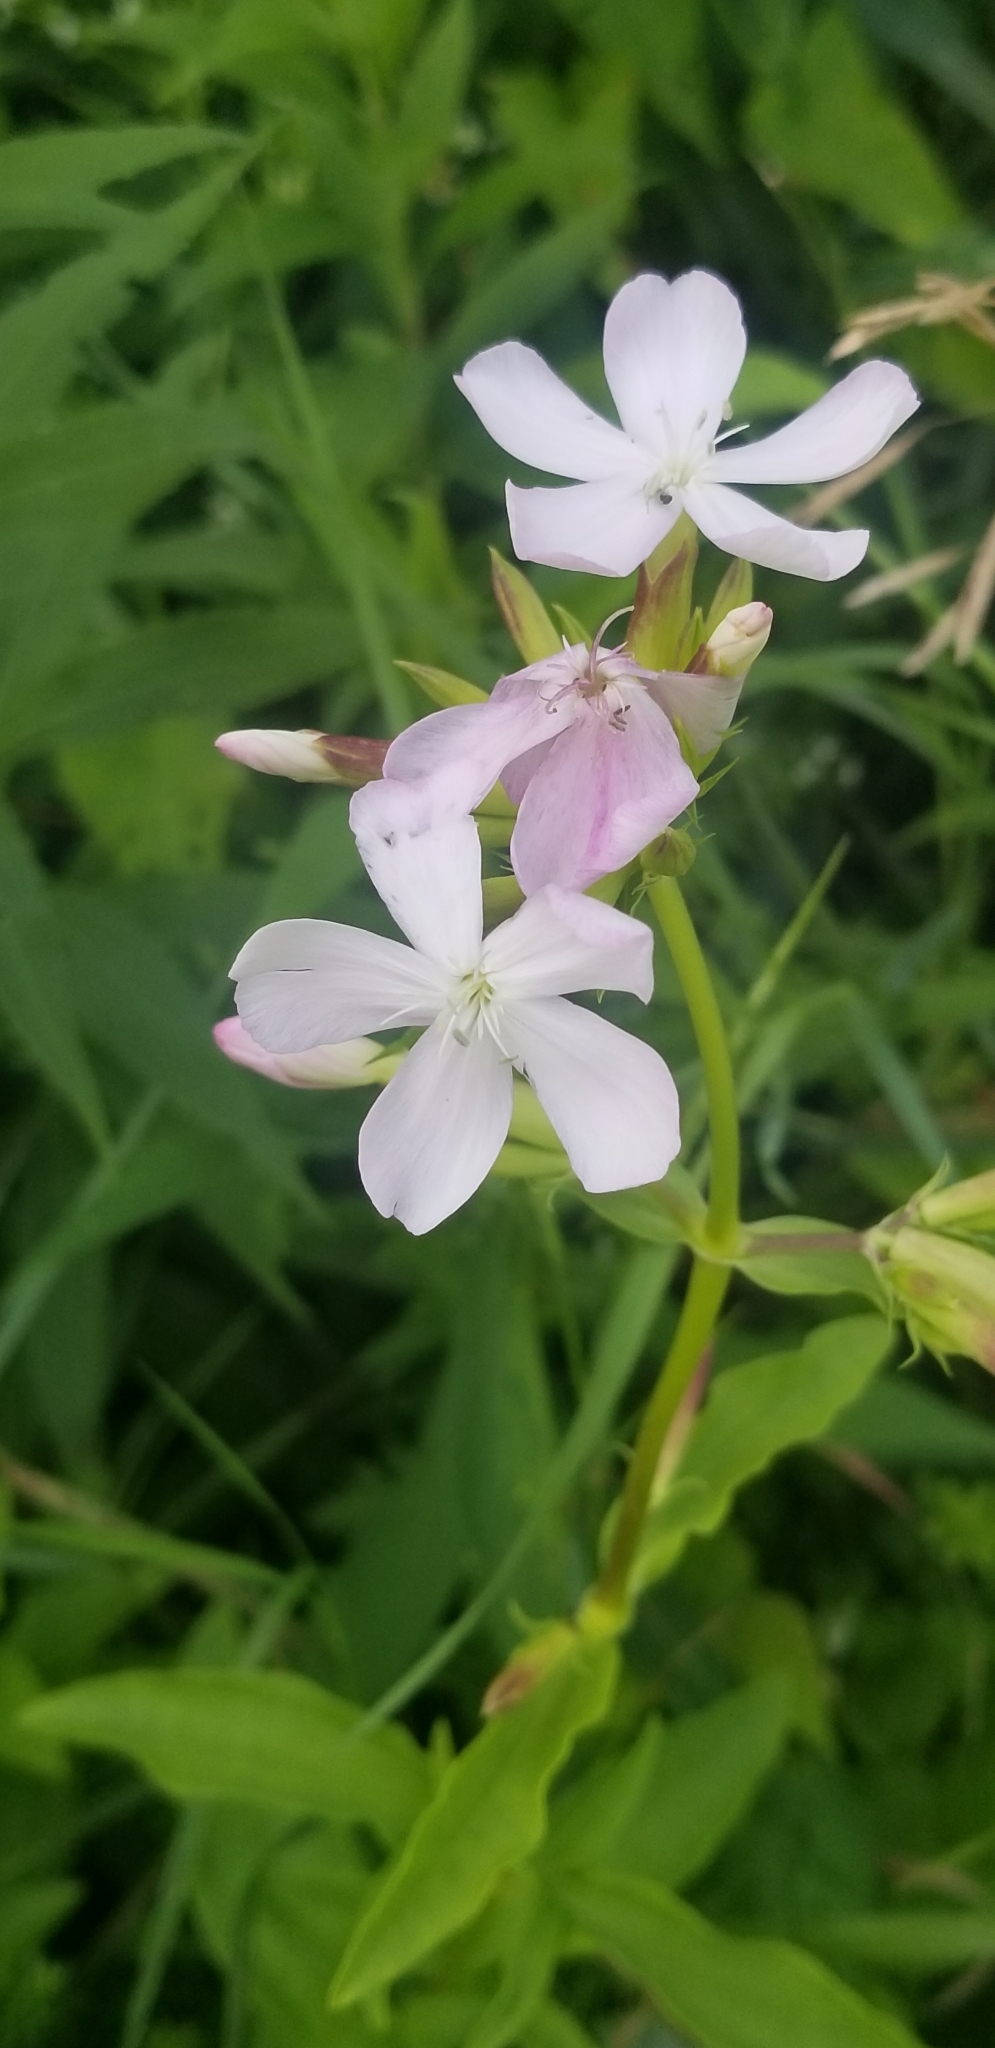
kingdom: Plantae
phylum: Tracheophyta
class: Magnoliopsida
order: Caryophyllales
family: Caryophyllaceae
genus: Saponaria
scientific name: Saponaria officinalis
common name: Soapwort
